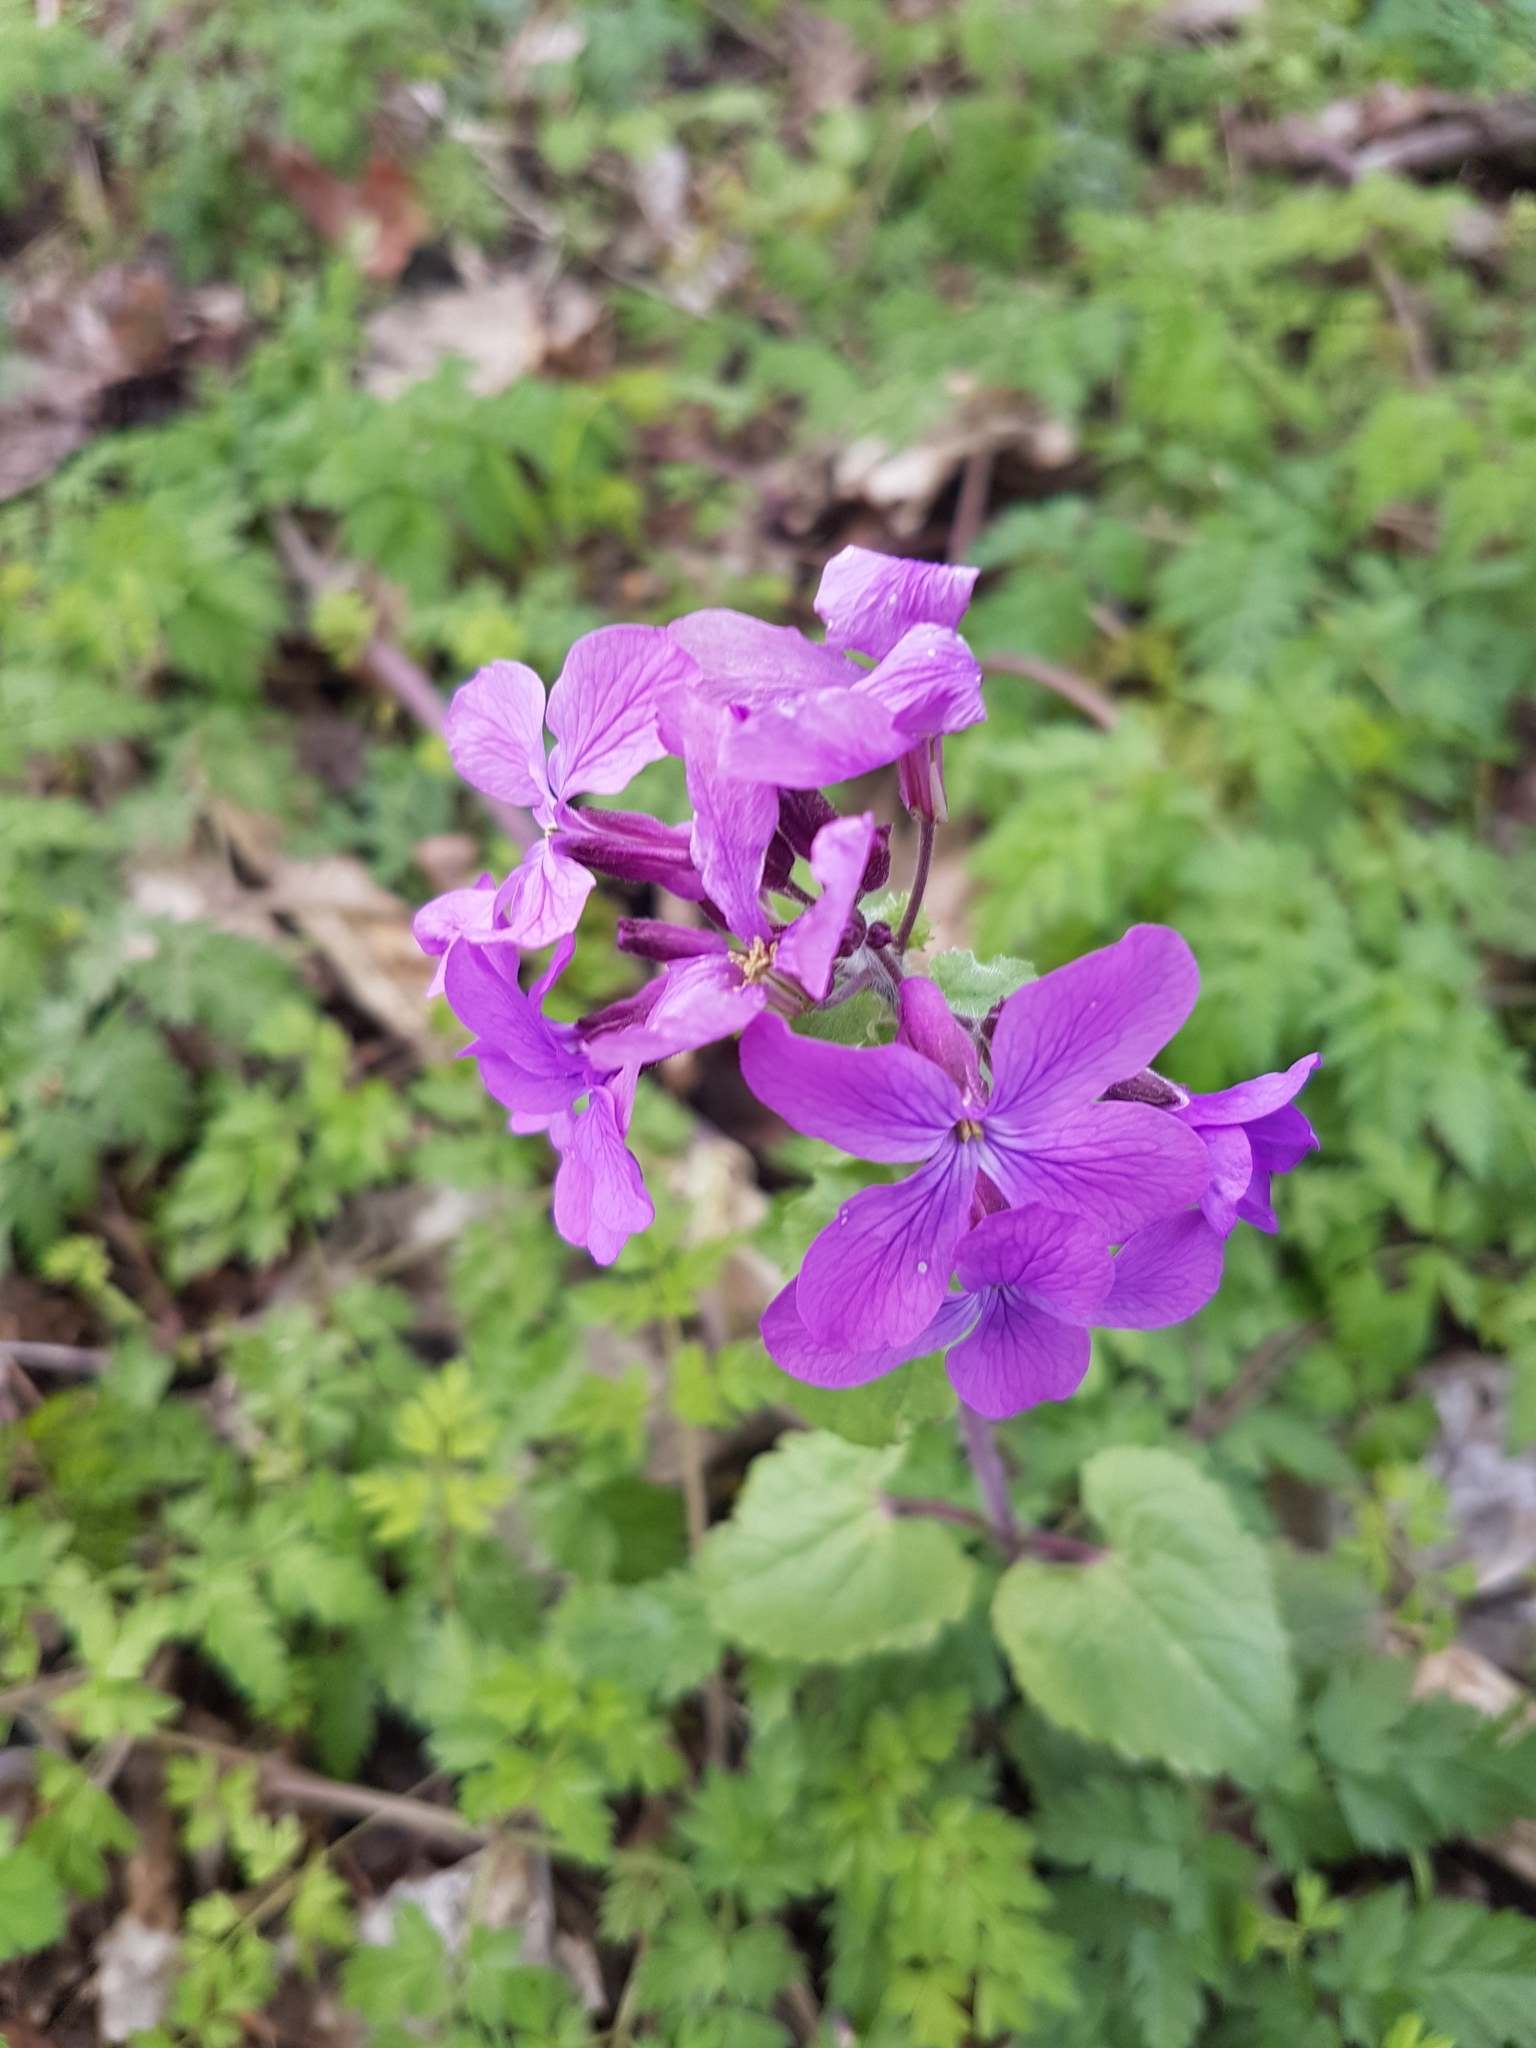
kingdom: Plantae
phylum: Tracheophyta
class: Magnoliopsida
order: Brassicales
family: Brassicaceae
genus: Lunaria
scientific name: Lunaria annua
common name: Honesty
